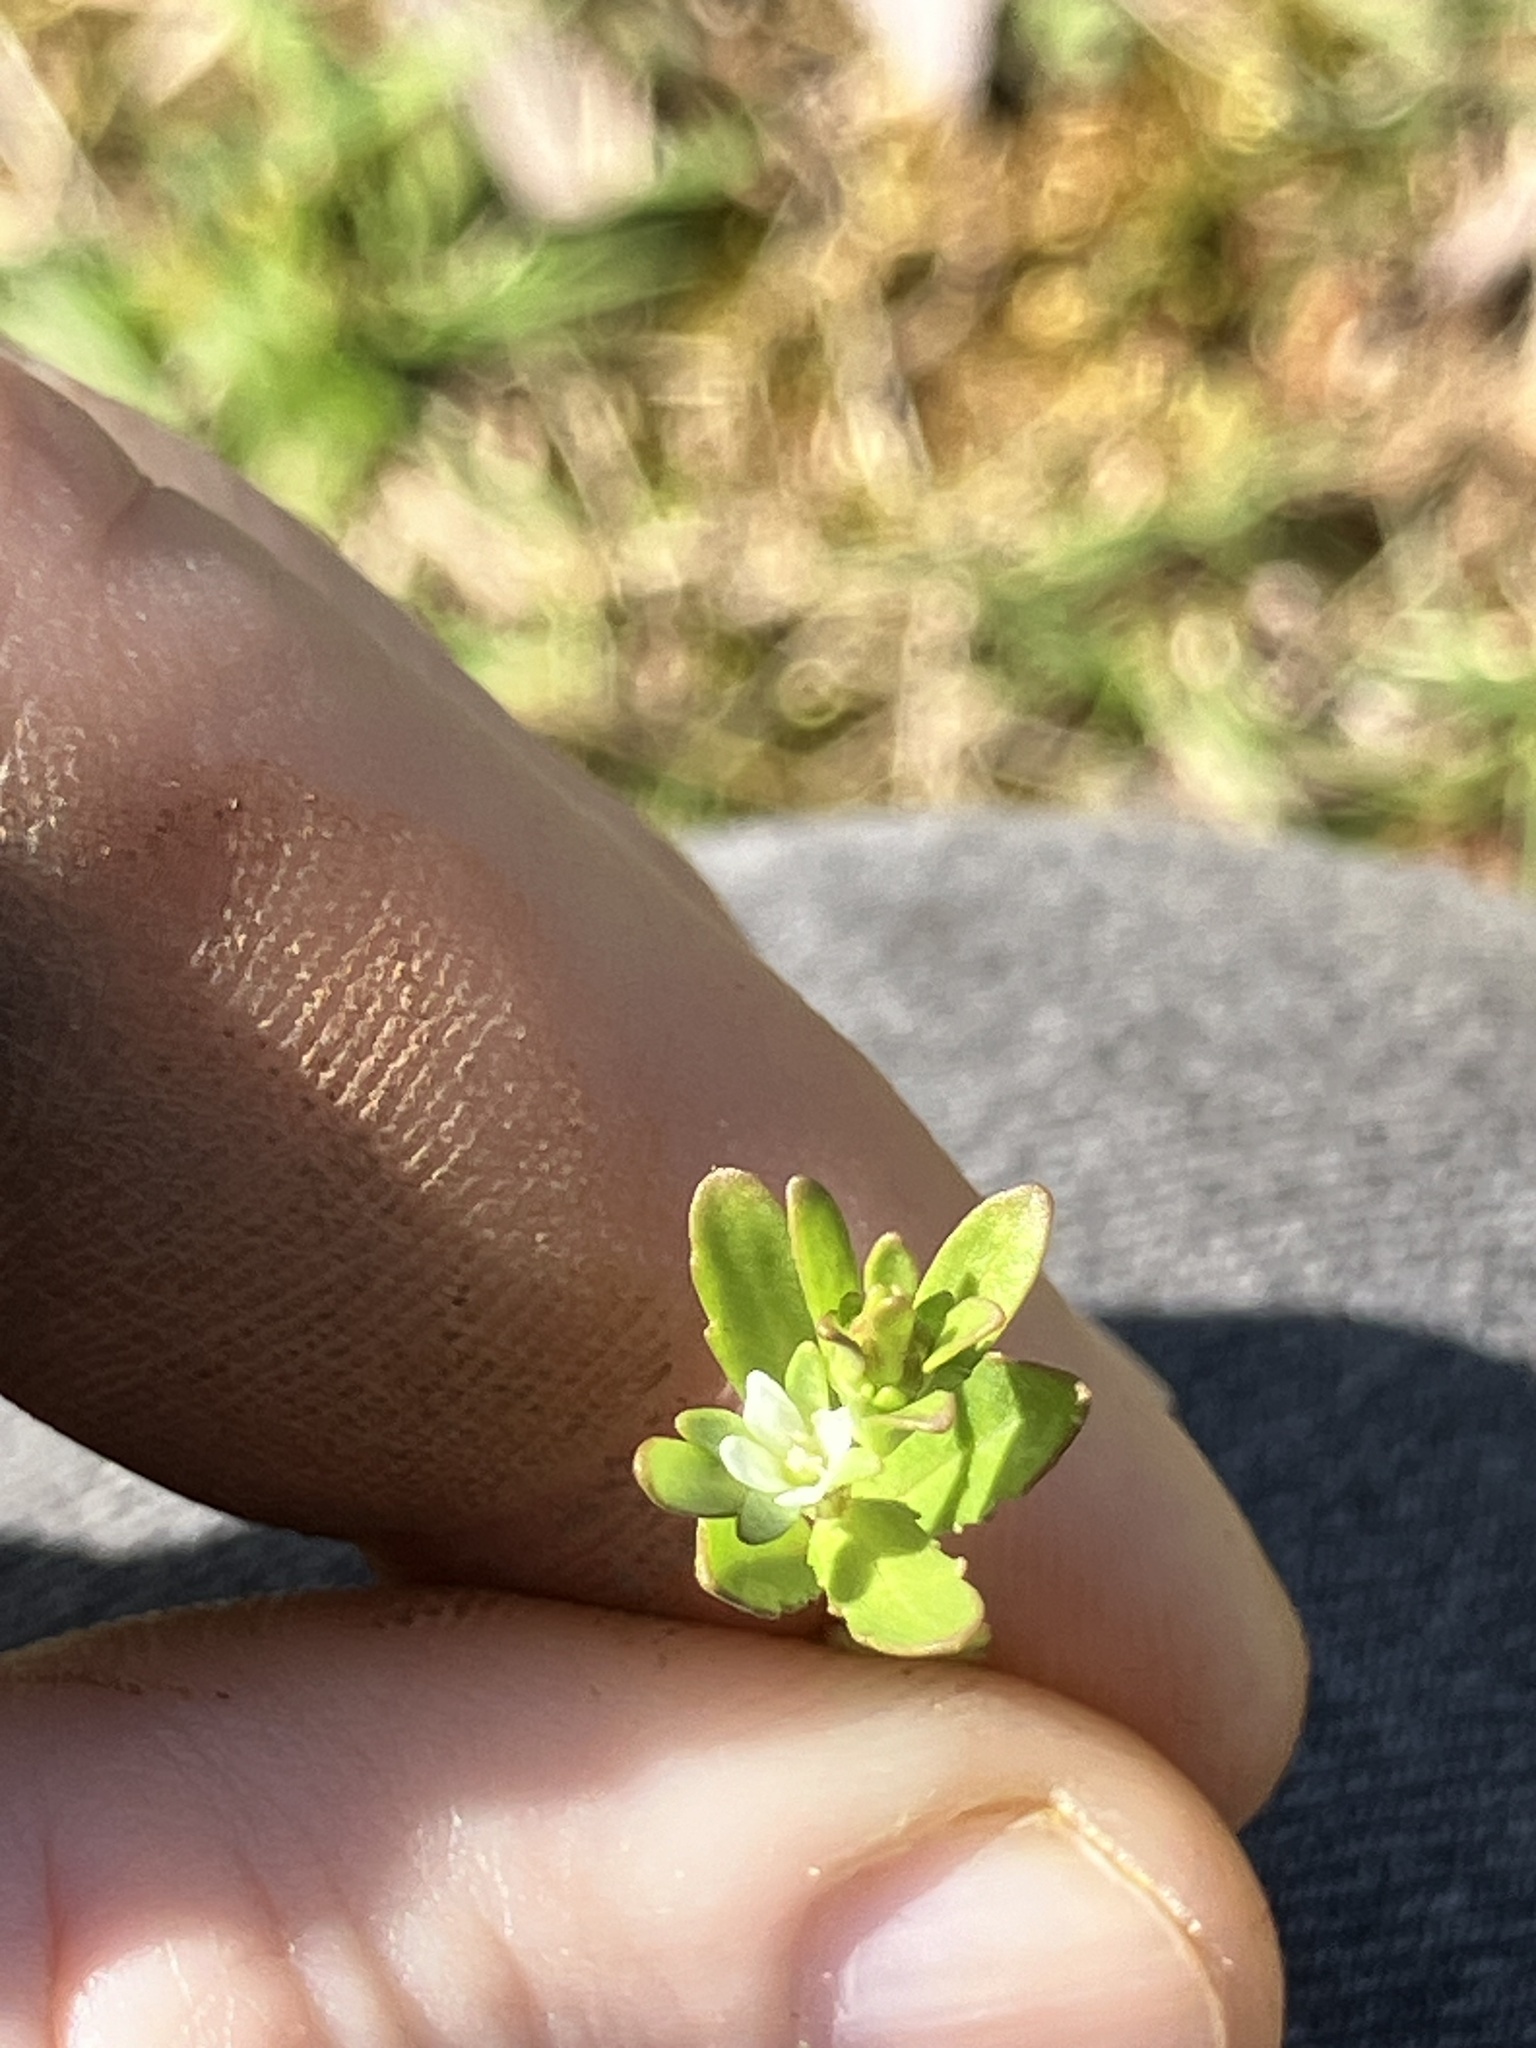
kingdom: Plantae
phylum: Tracheophyta
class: Magnoliopsida
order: Lamiales
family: Plantaginaceae
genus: Veronica
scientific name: Veronica peregrina
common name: Neckweed
